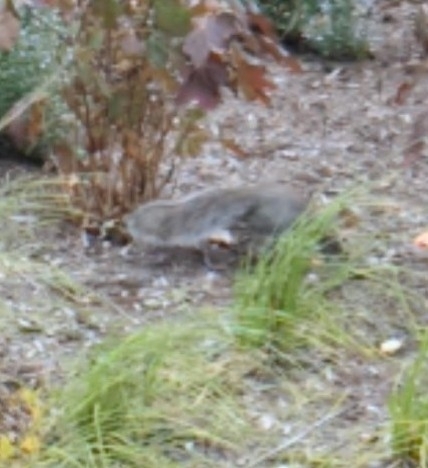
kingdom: Animalia
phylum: Chordata
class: Mammalia
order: Rodentia
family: Sciuridae
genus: Sciurus
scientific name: Sciurus carolinensis
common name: Eastern gray squirrel
